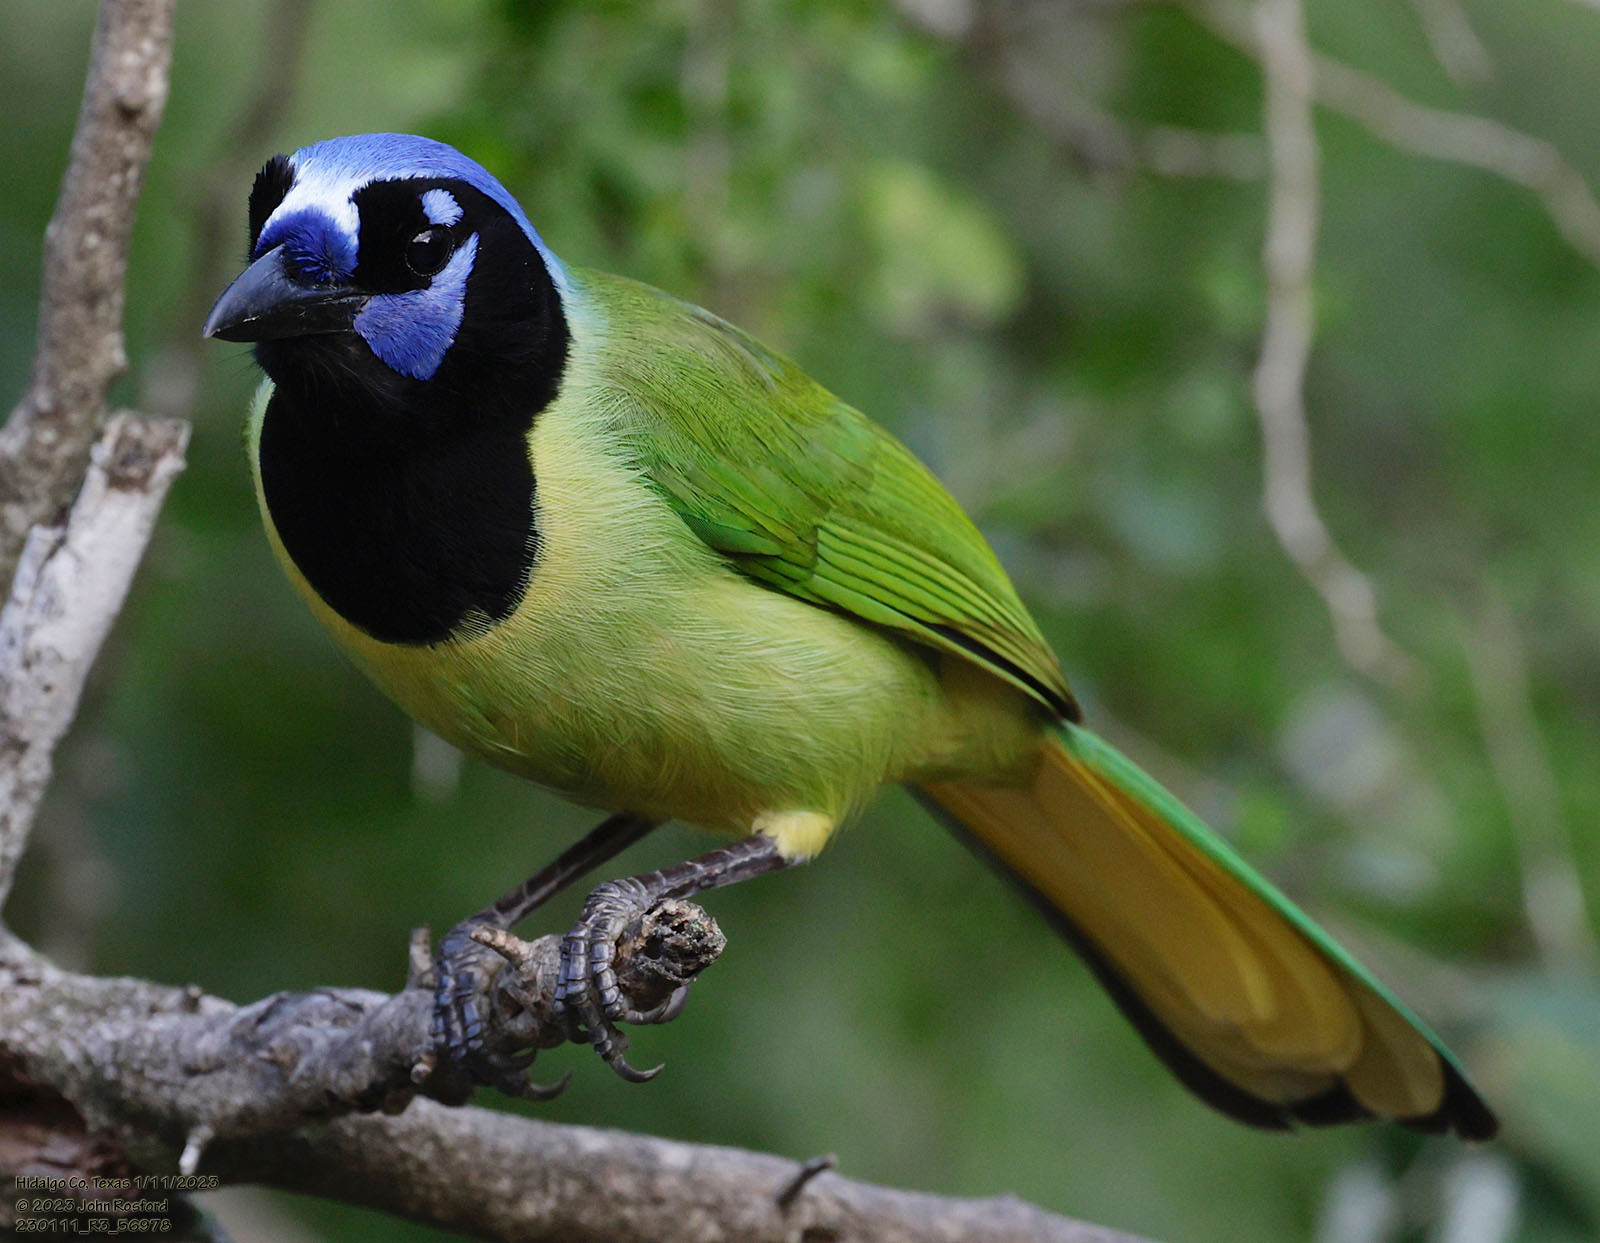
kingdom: Animalia
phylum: Chordata
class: Aves
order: Passeriformes
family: Corvidae
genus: Cyanocorax
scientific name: Cyanocorax yncas
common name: Green jay
